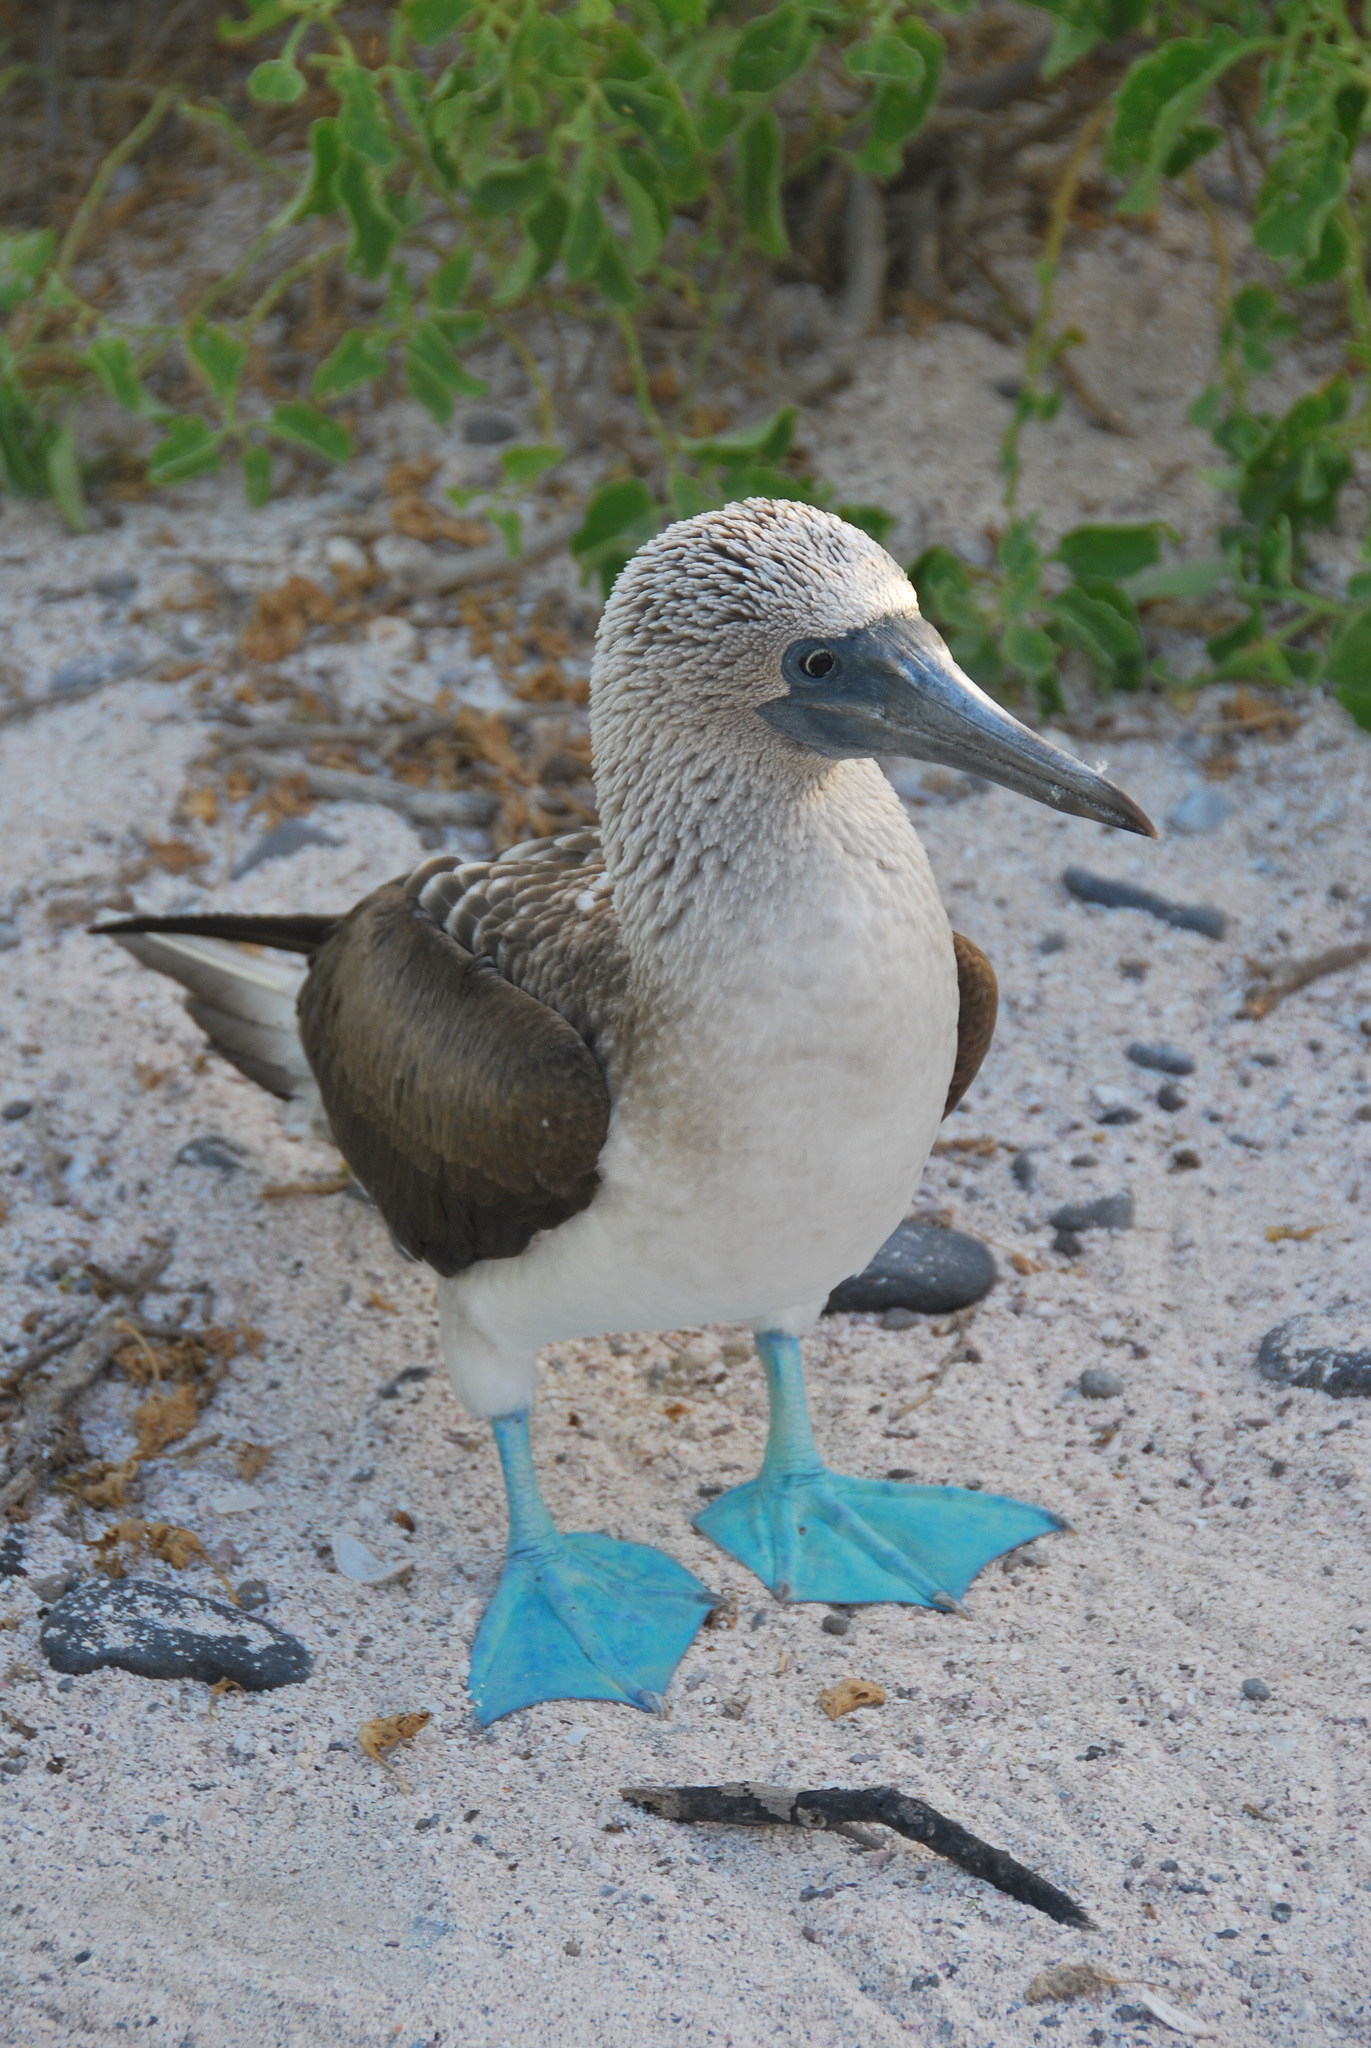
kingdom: Animalia
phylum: Chordata
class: Aves
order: Suliformes
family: Sulidae
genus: Sula
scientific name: Sula nebouxii
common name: Blue-footed booby
